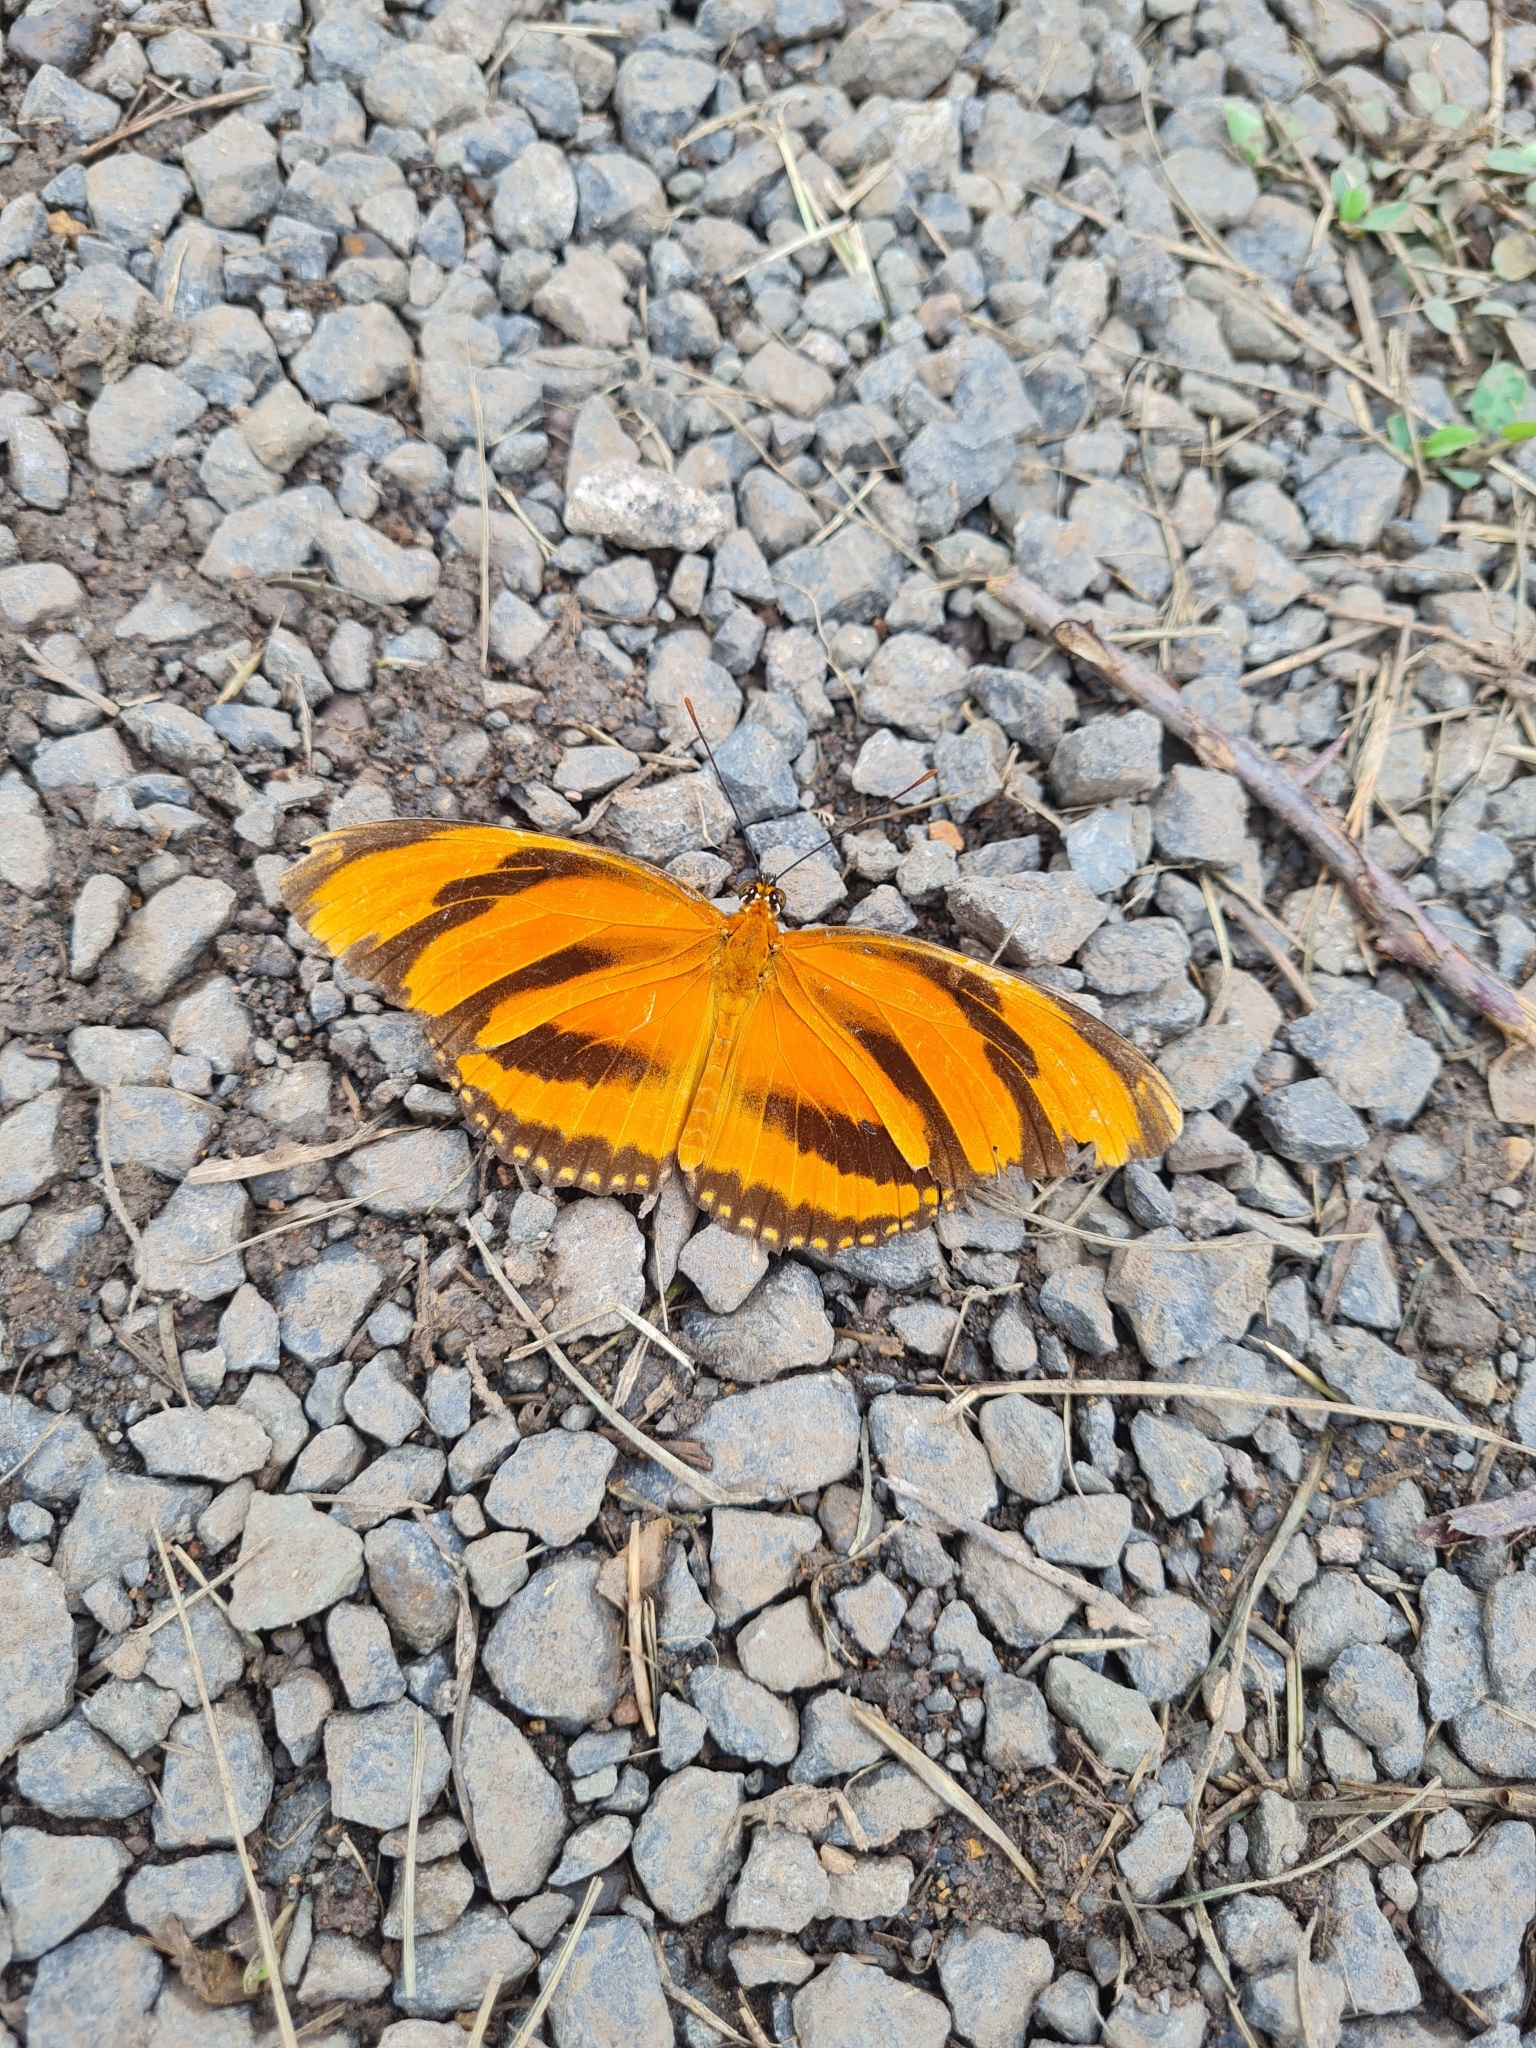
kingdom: Animalia
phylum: Arthropoda
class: Insecta
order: Lepidoptera
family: Nymphalidae
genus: Dryadula
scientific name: Dryadula phaetusa
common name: Banded orange heliconian
